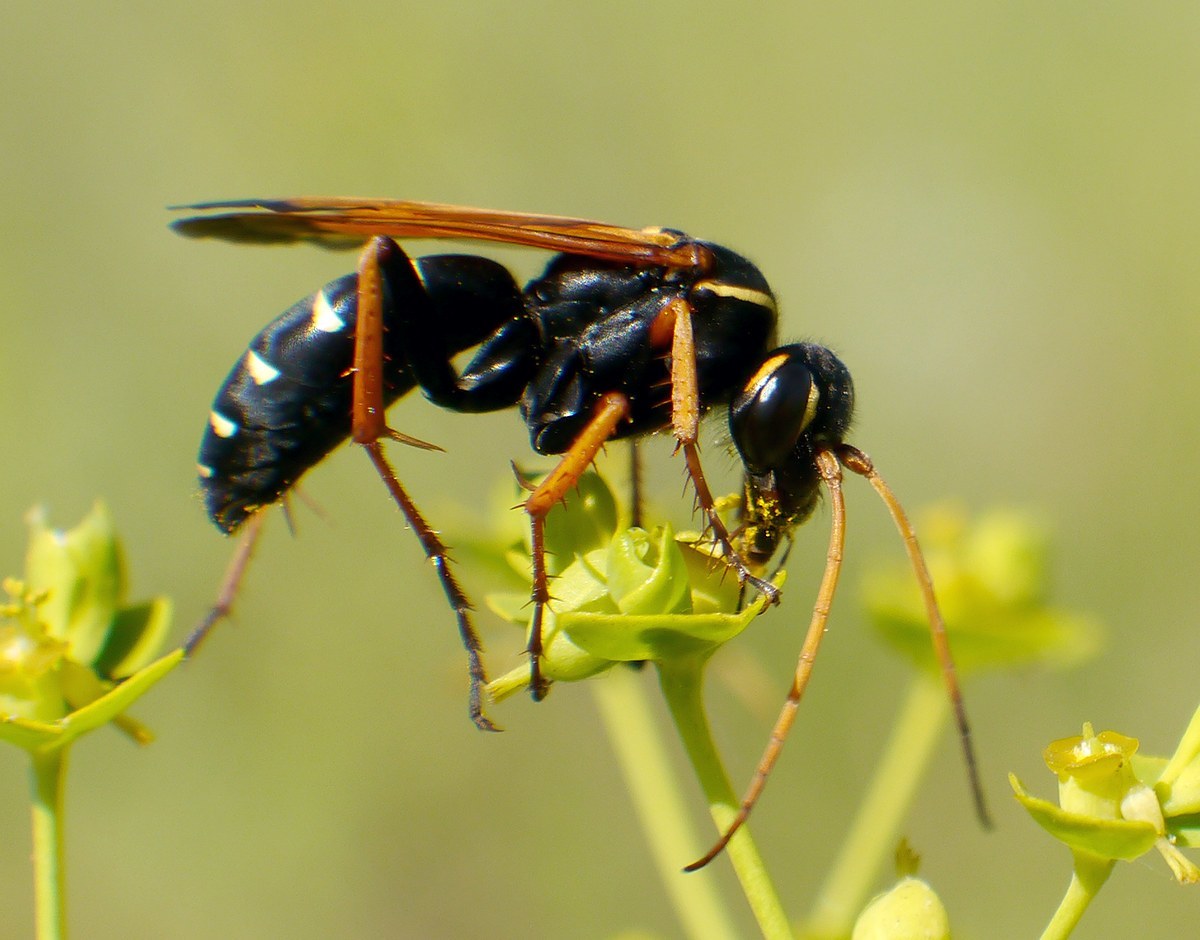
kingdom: Animalia
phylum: Arthropoda
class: Insecta
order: Hymenoptera
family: Pompilidae
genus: Parabatozonus
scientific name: Parabatozonus lacerticida
